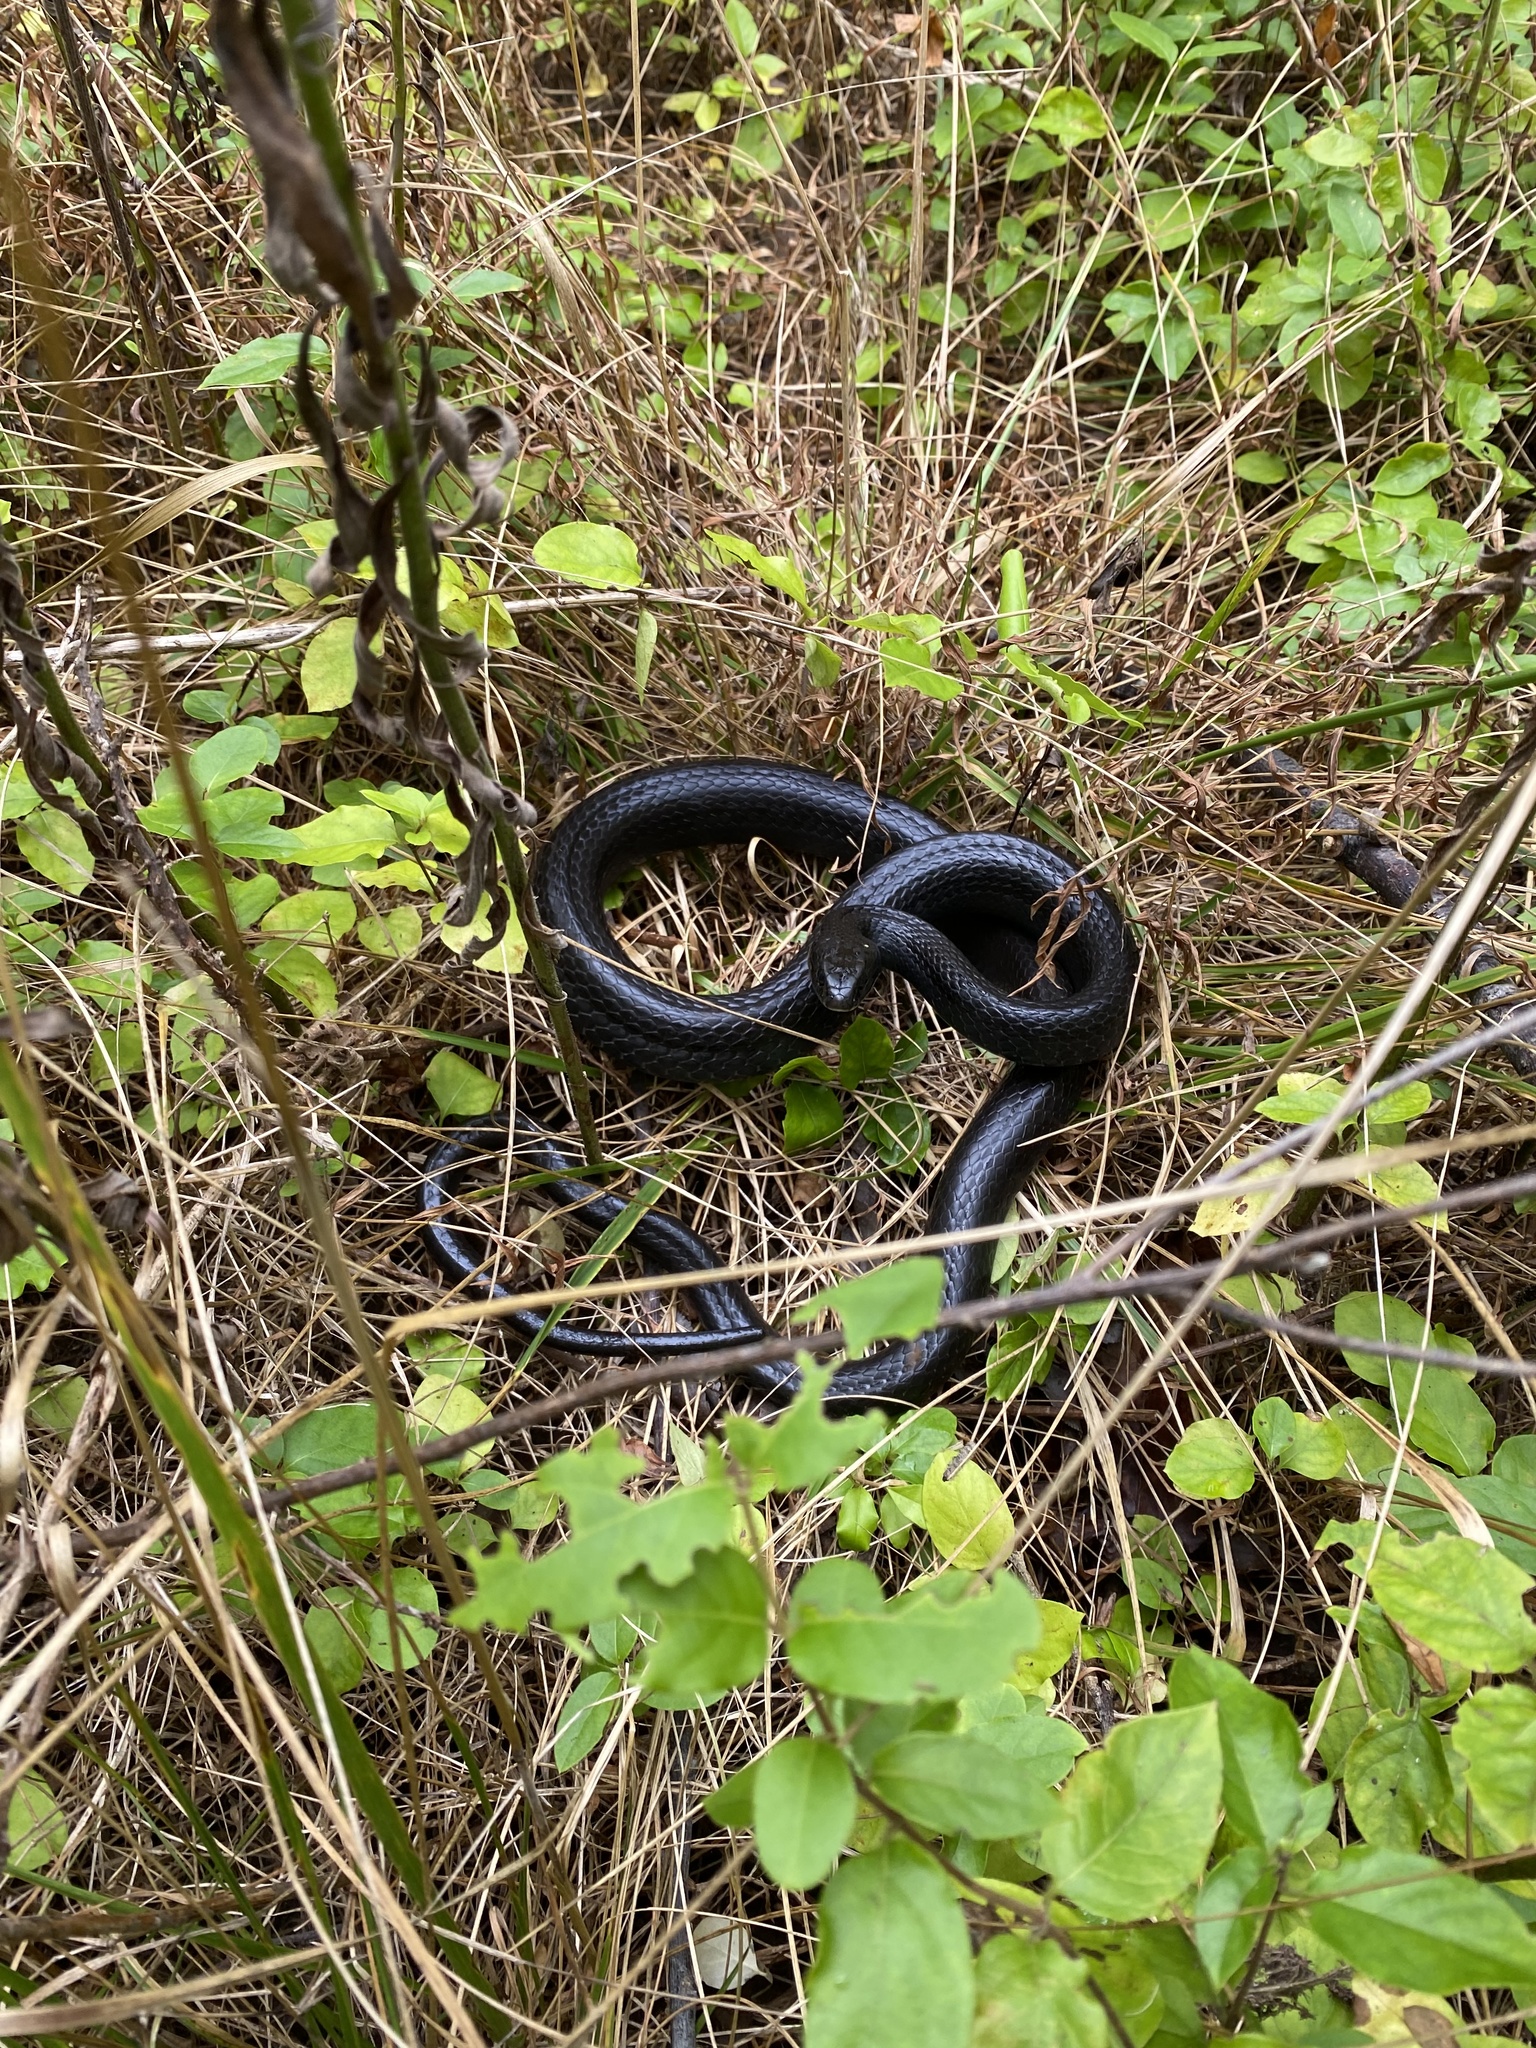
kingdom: Animalia
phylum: Chordata
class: Squamata
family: Colubridae
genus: Coluber
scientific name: Coluber constrictor
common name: Eastern racer
